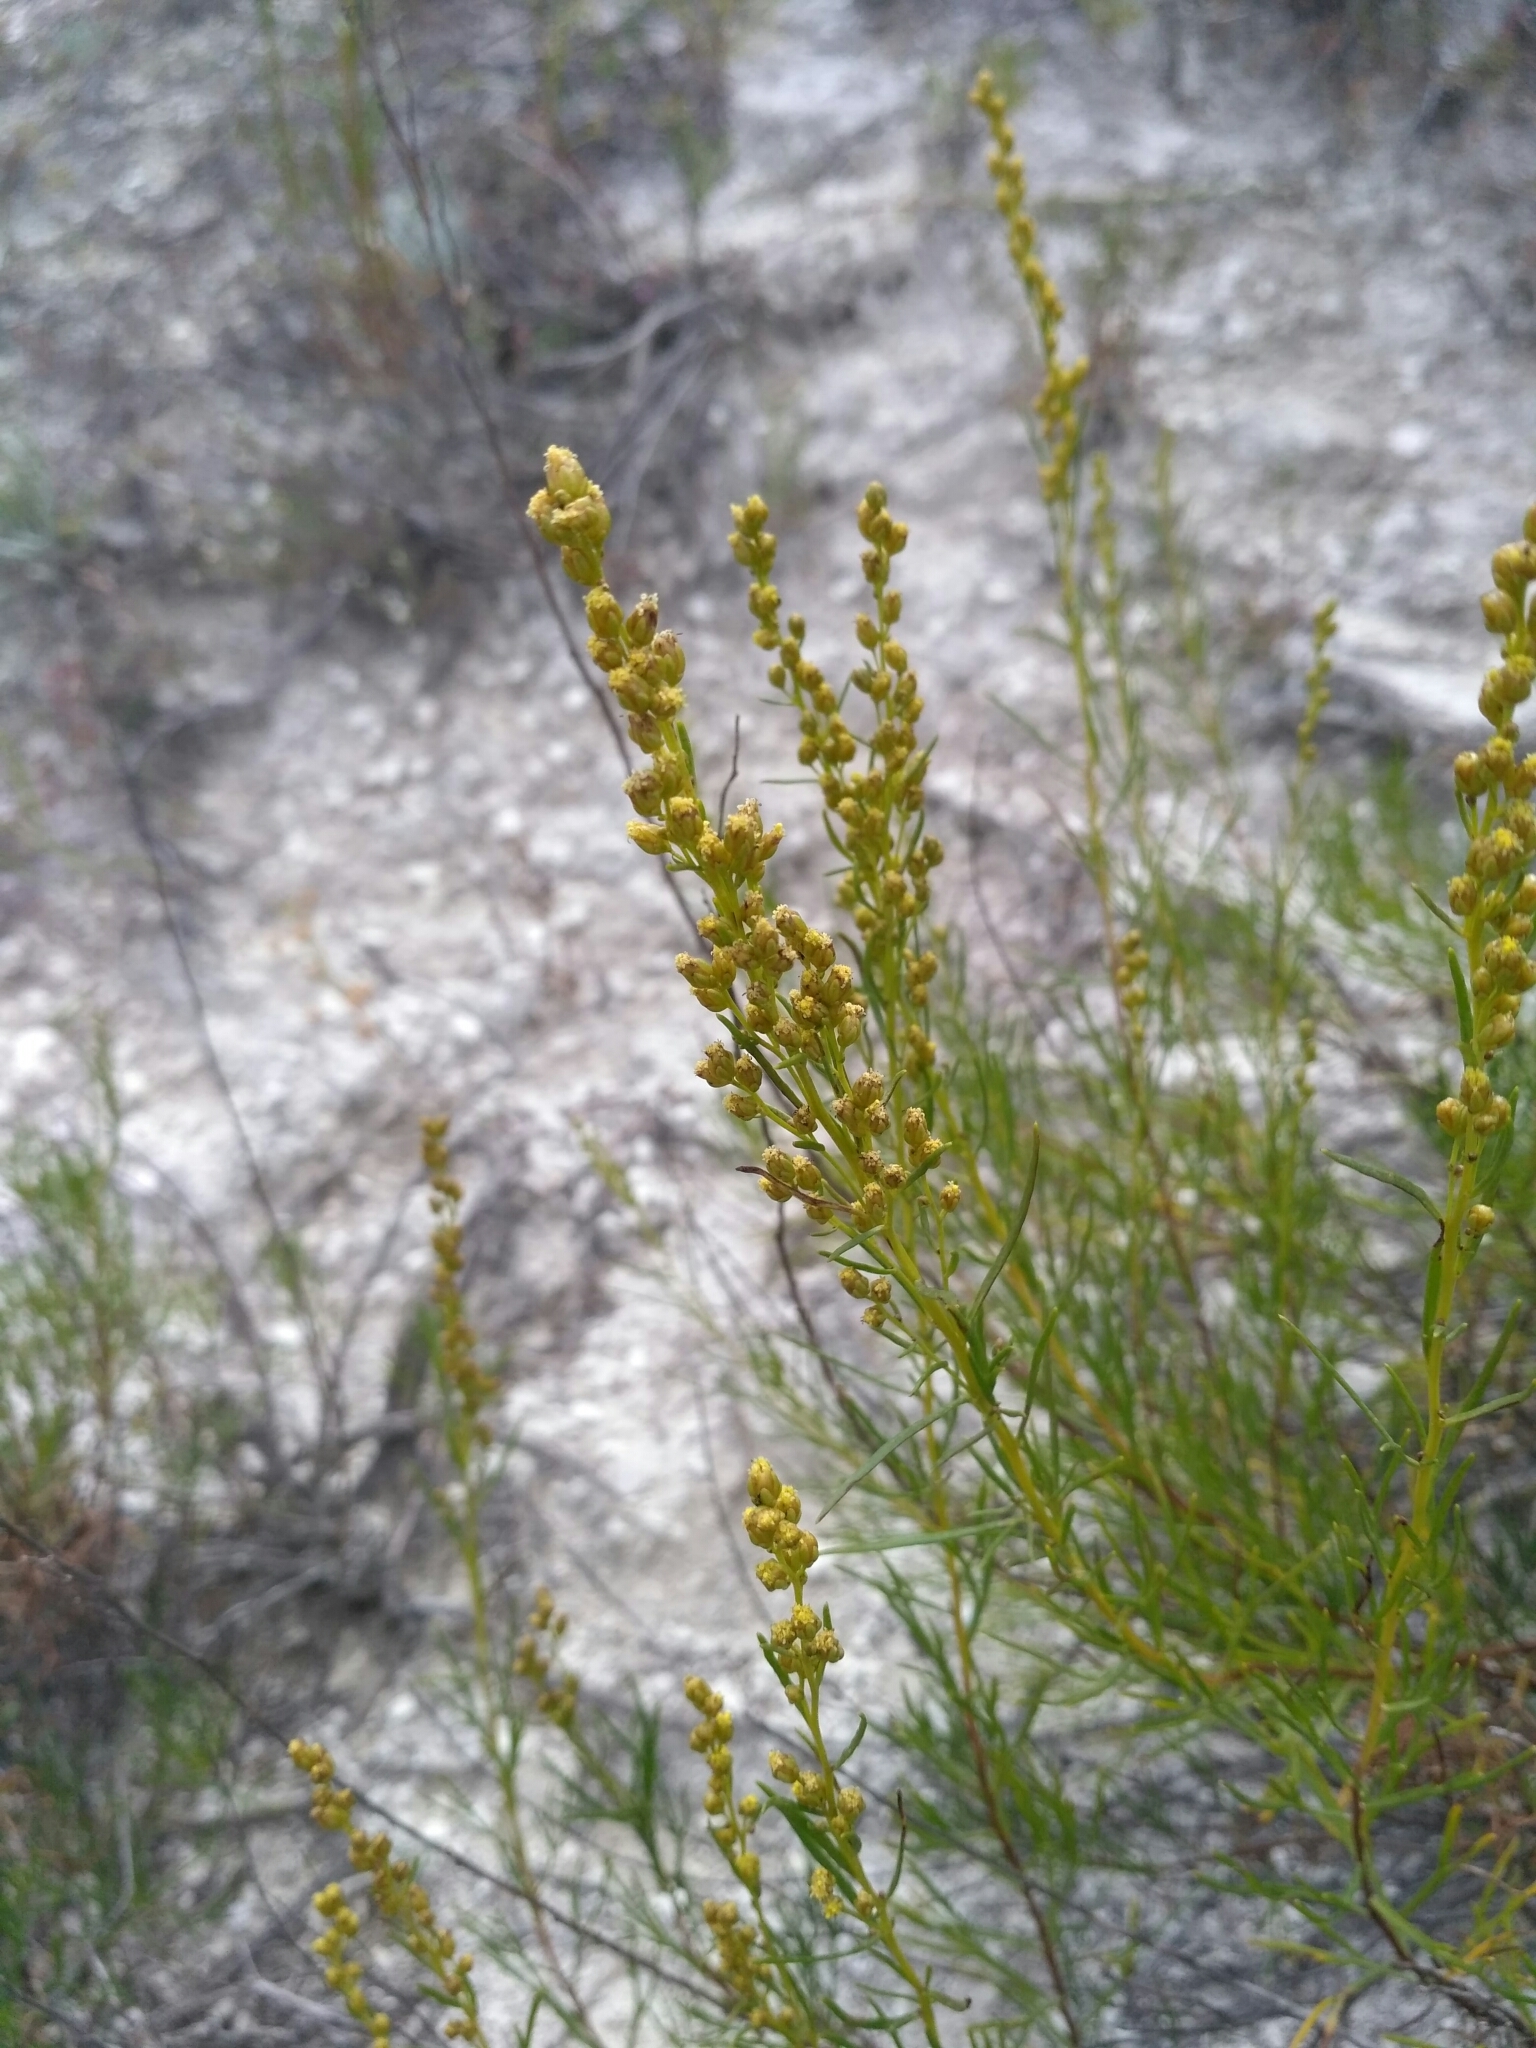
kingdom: Plantae
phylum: Tracheophyta
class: Magnoliopsida
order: Asterales
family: Asteraceae
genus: Artemisia
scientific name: Artemisia salsoloides
